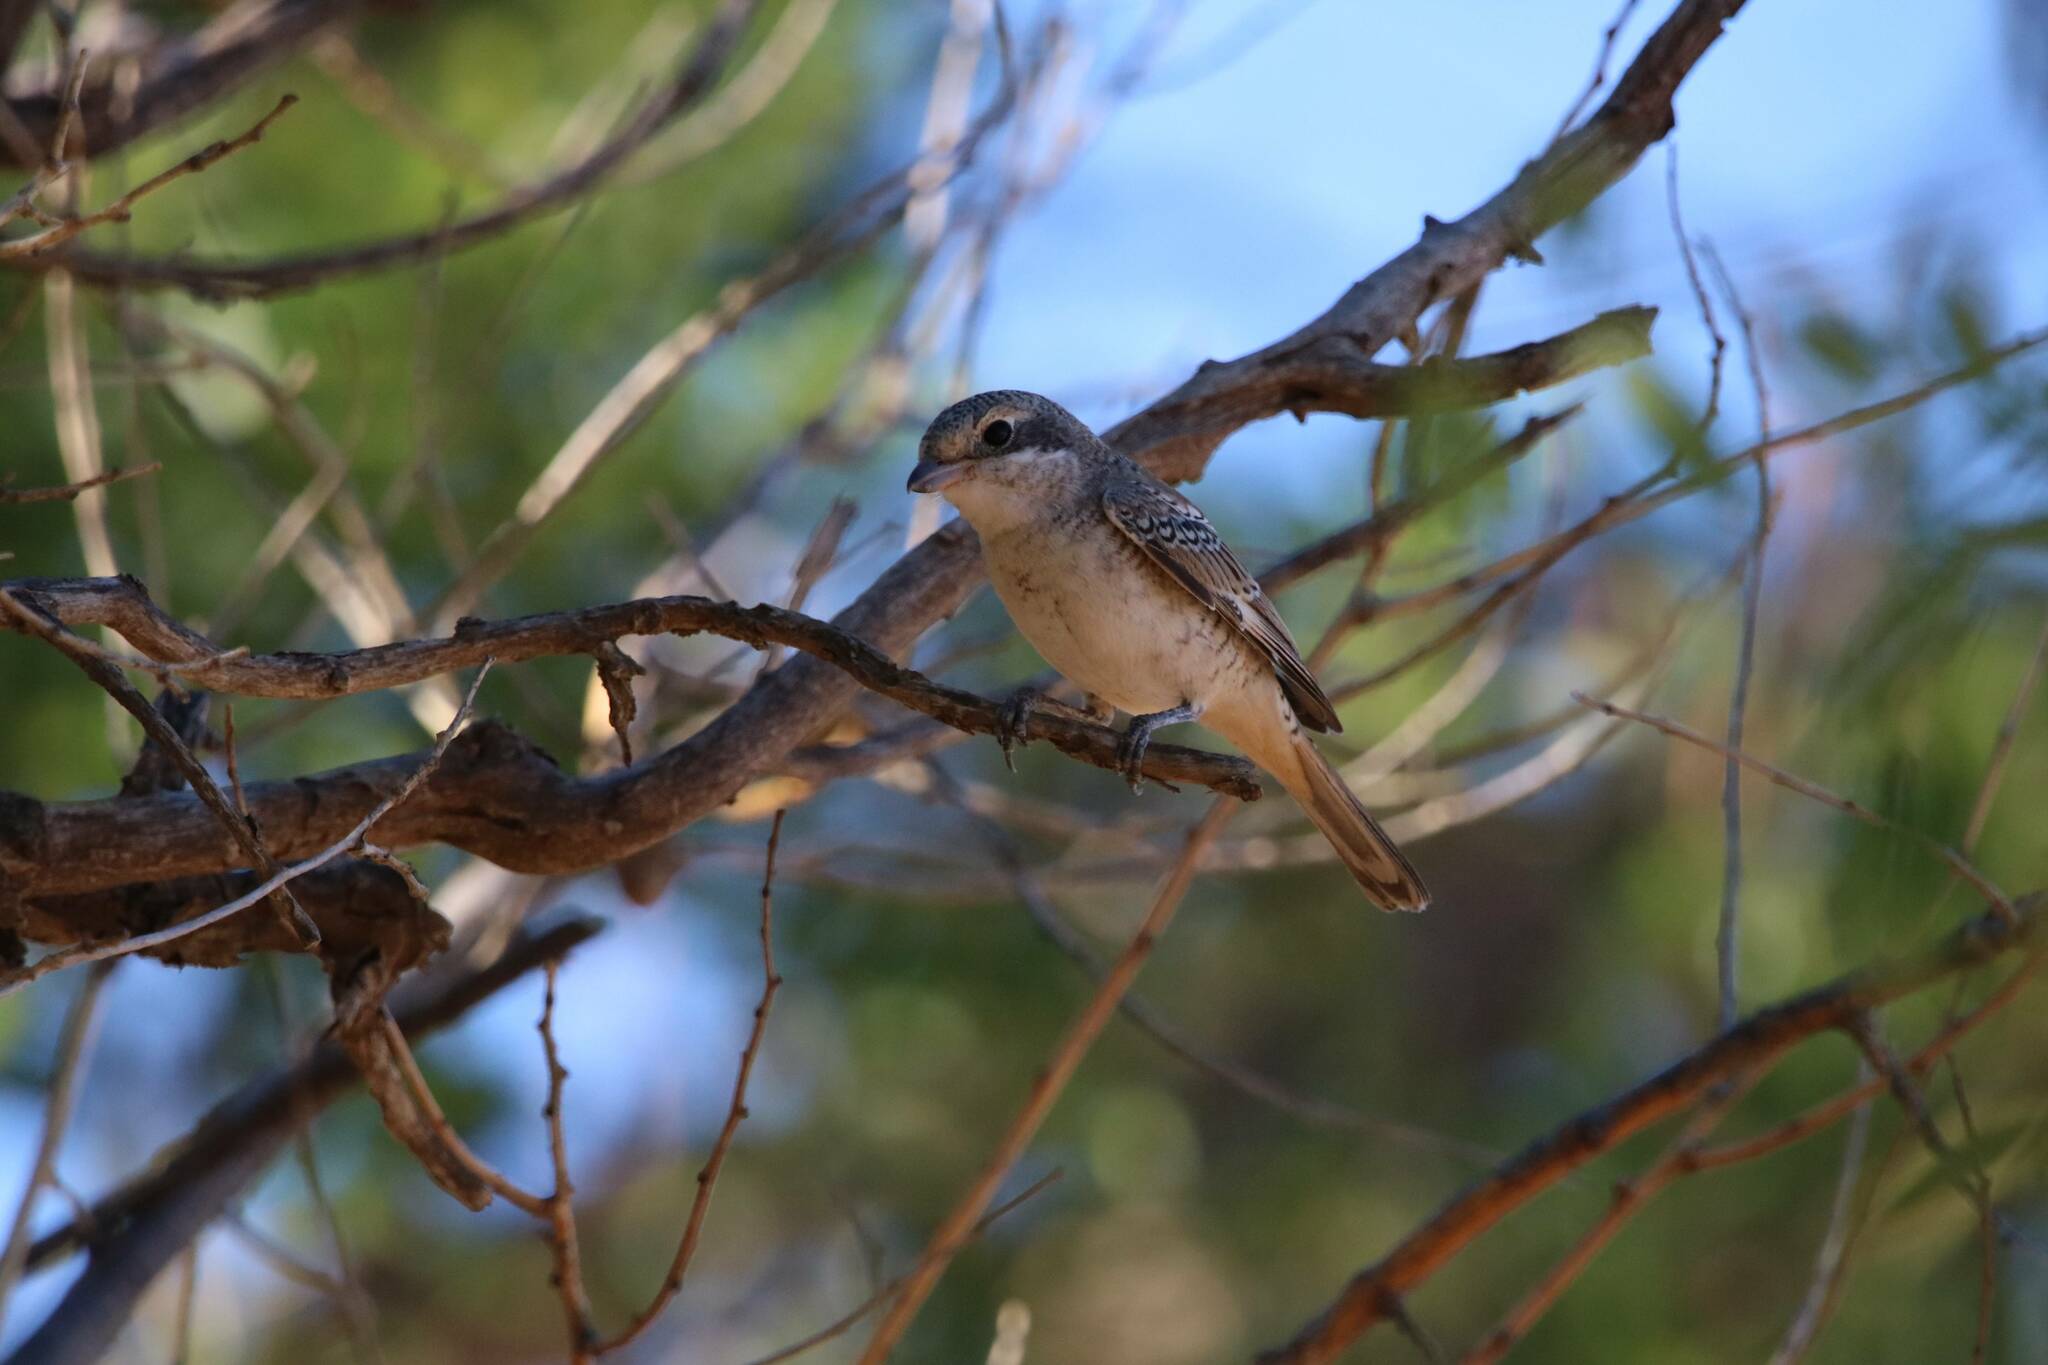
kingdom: Animalia
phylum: Chordata
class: Aves
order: Passeriformes
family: Laniidae
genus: Lanius
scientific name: Lanius senator
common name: Woodchat shrike
